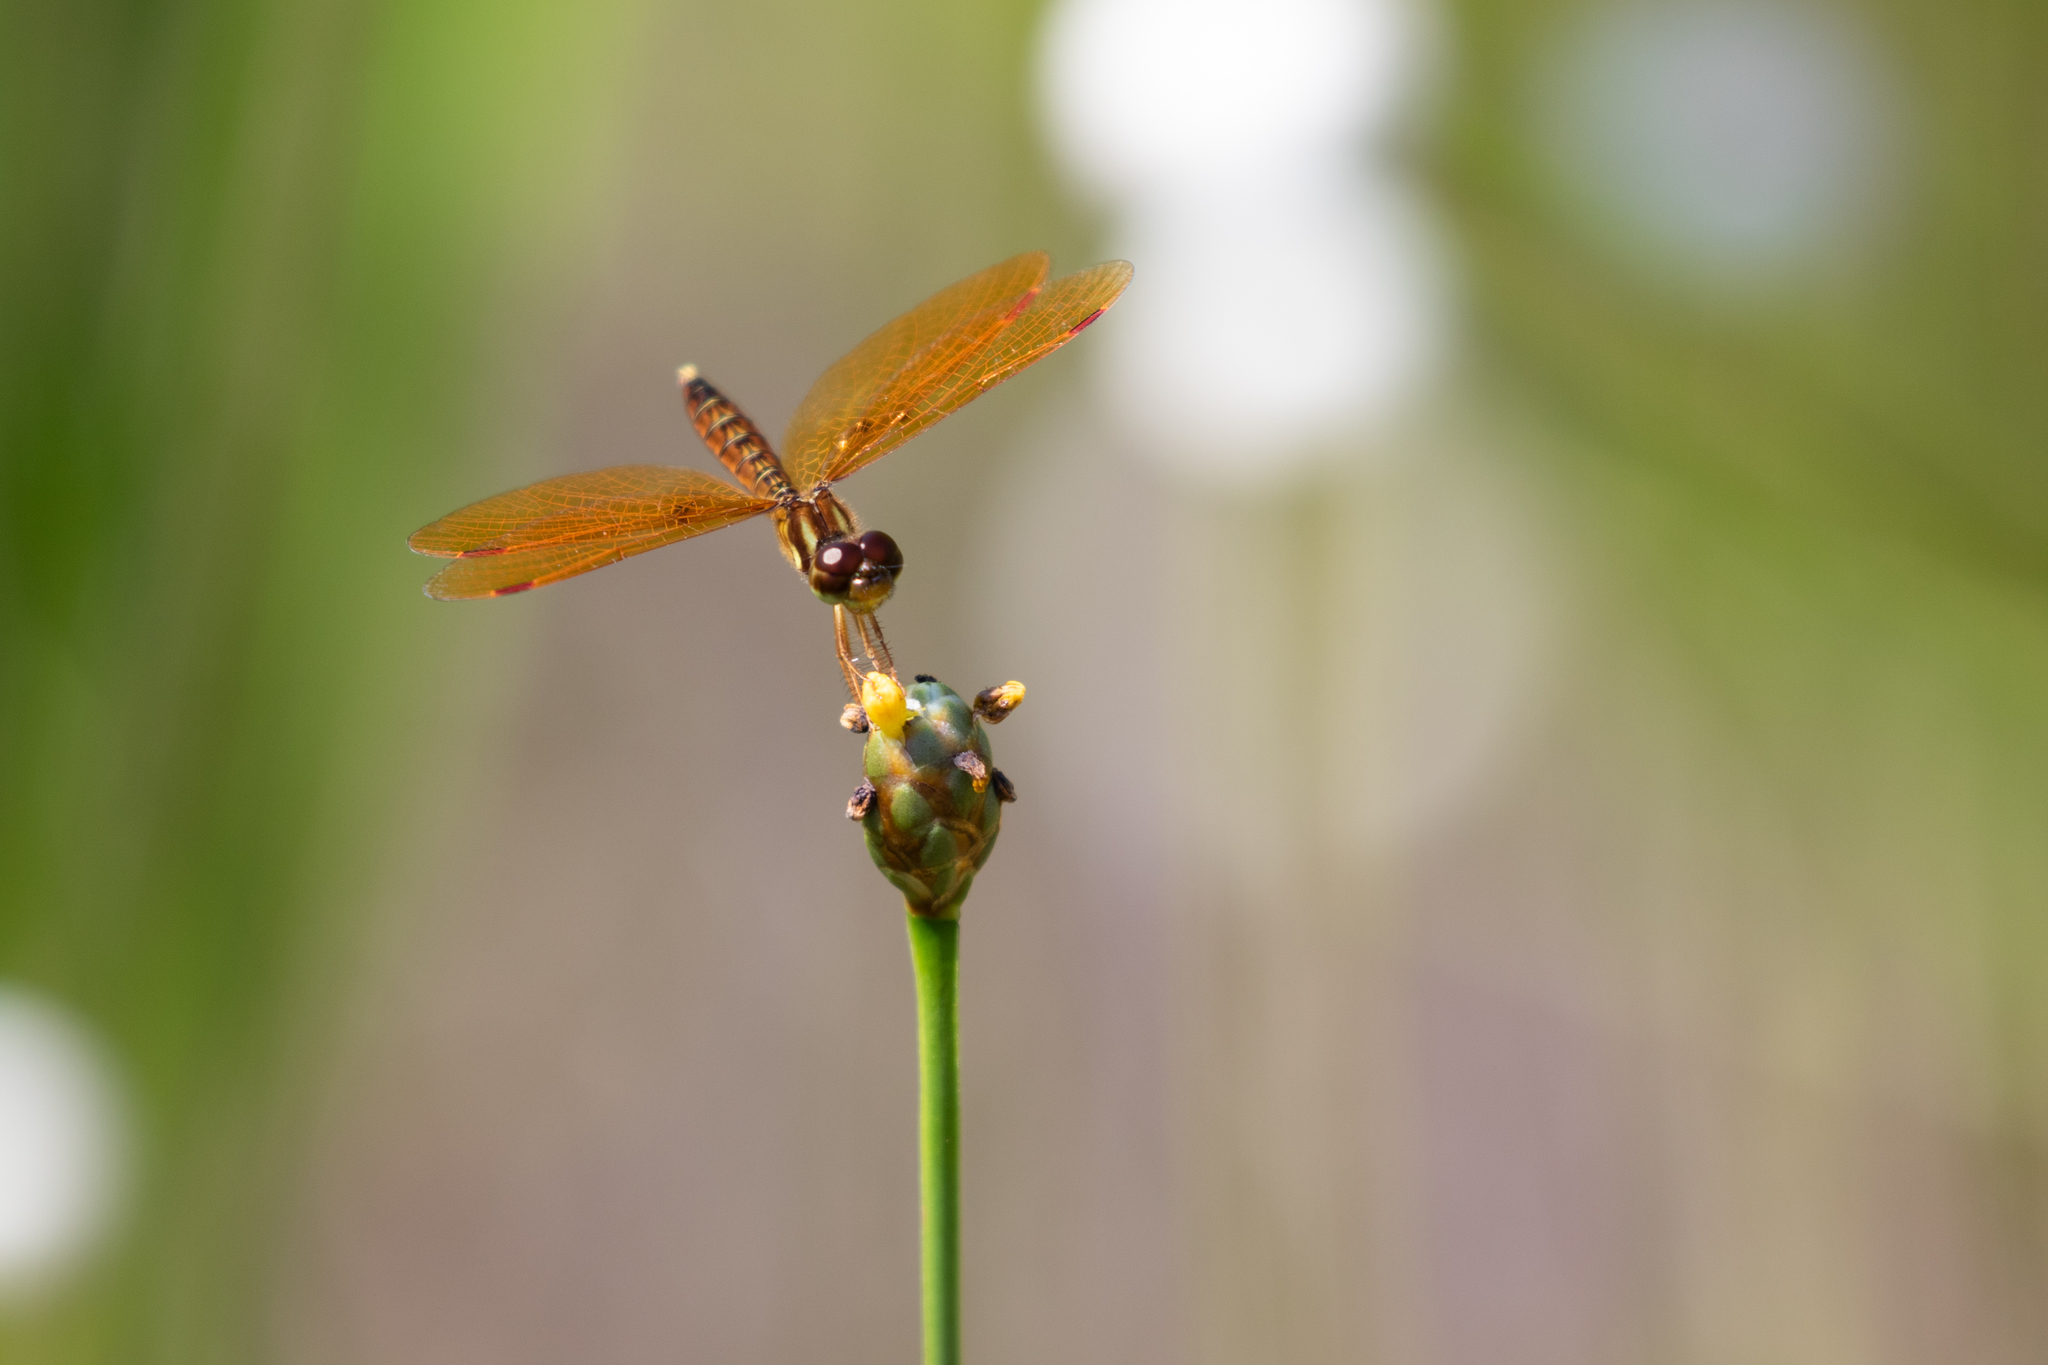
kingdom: Animalia
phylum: Arthropoda
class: Insecta
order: Odonata
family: Libellulidae
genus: Perithemis
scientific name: Perithemis tenera
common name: Eastern amberwing
